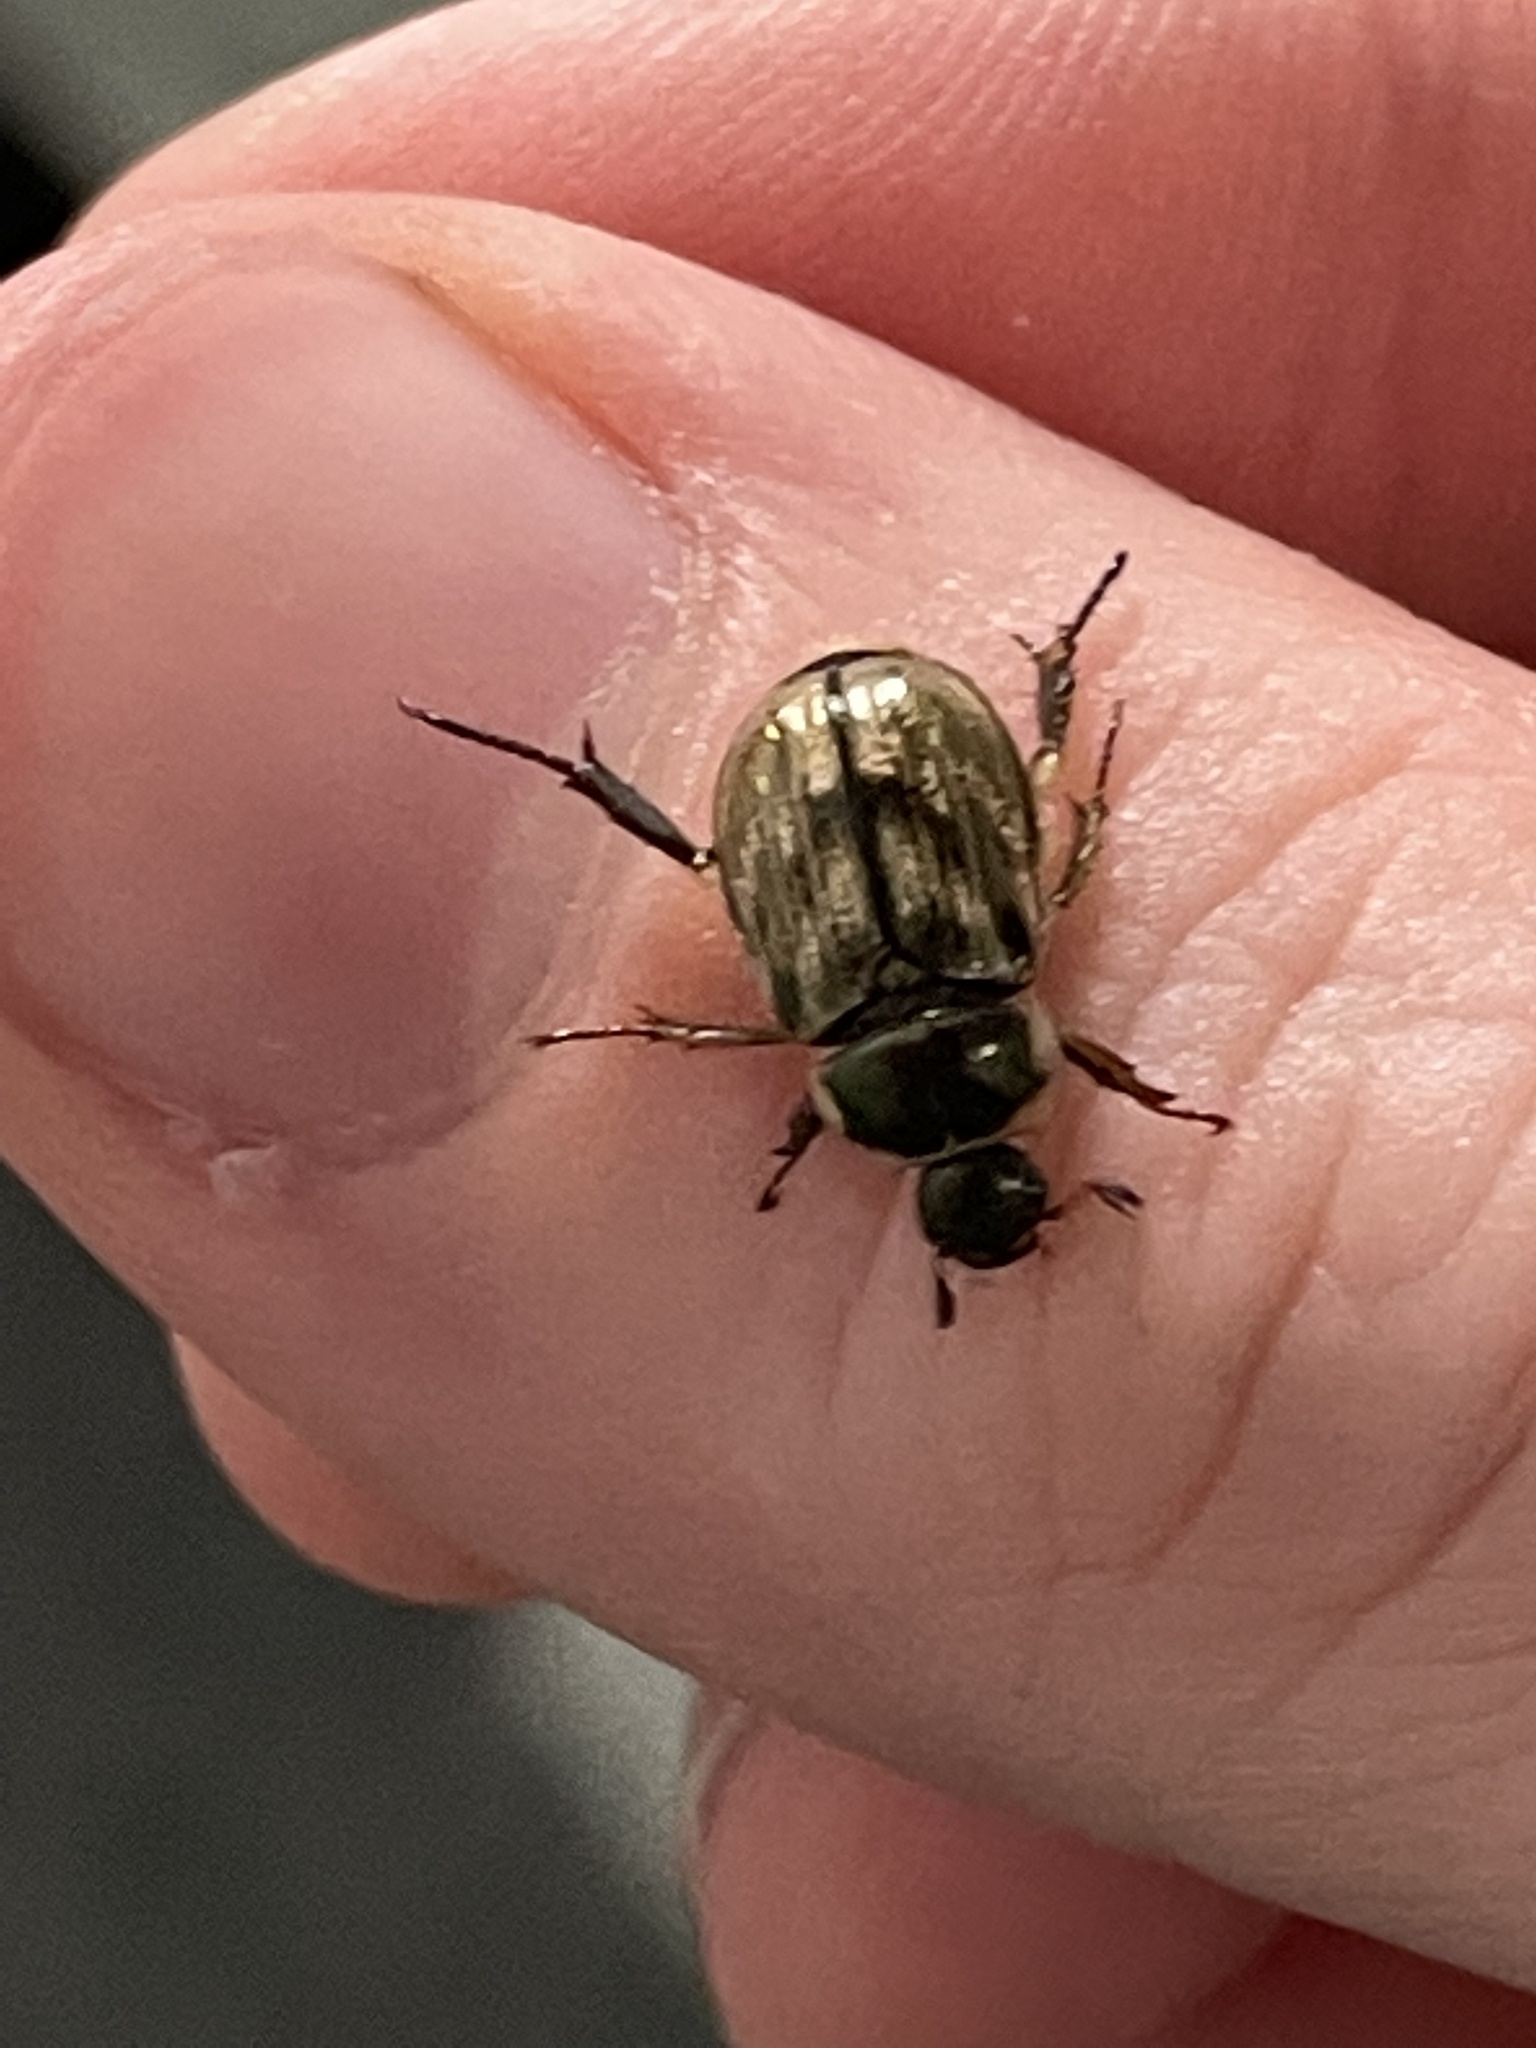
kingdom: Animalia
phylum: Arthropoda
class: Insecta
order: Coleoptera
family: Scarabaeidae
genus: Exomala
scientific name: Exomala orientalis
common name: Oriental beetle
